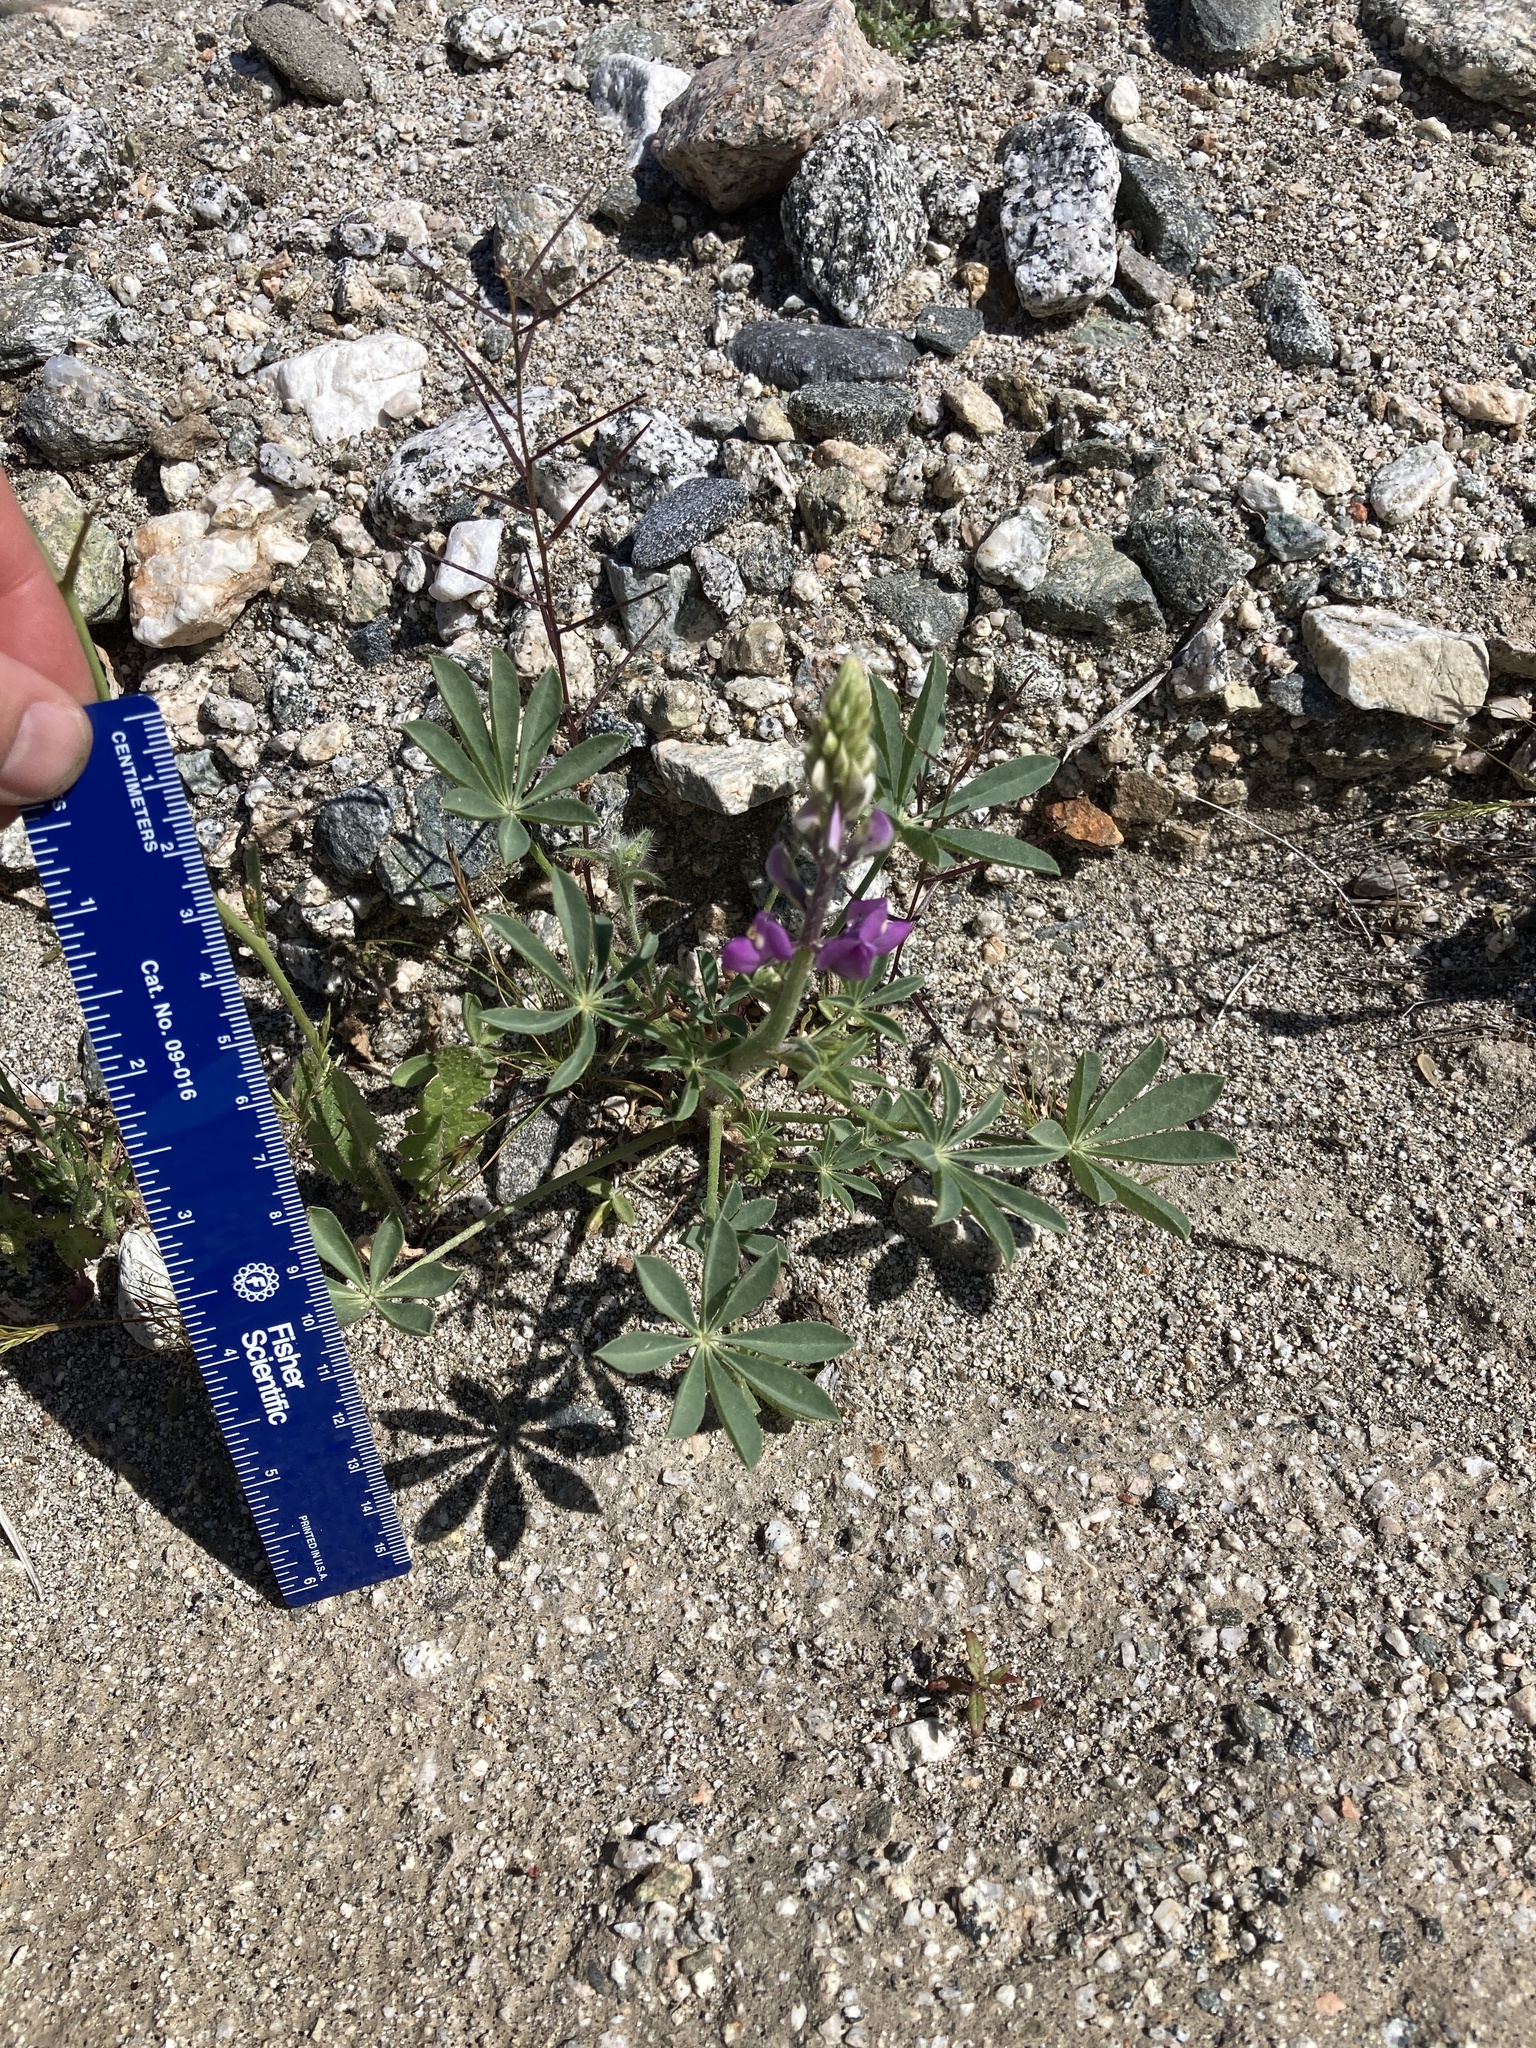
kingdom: Plantae
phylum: Tracheophyta
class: Magnoliopsida
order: Fabales
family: Fabaceae
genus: Lupinus
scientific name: Lupinus arizonicus
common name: Arizona lupine
